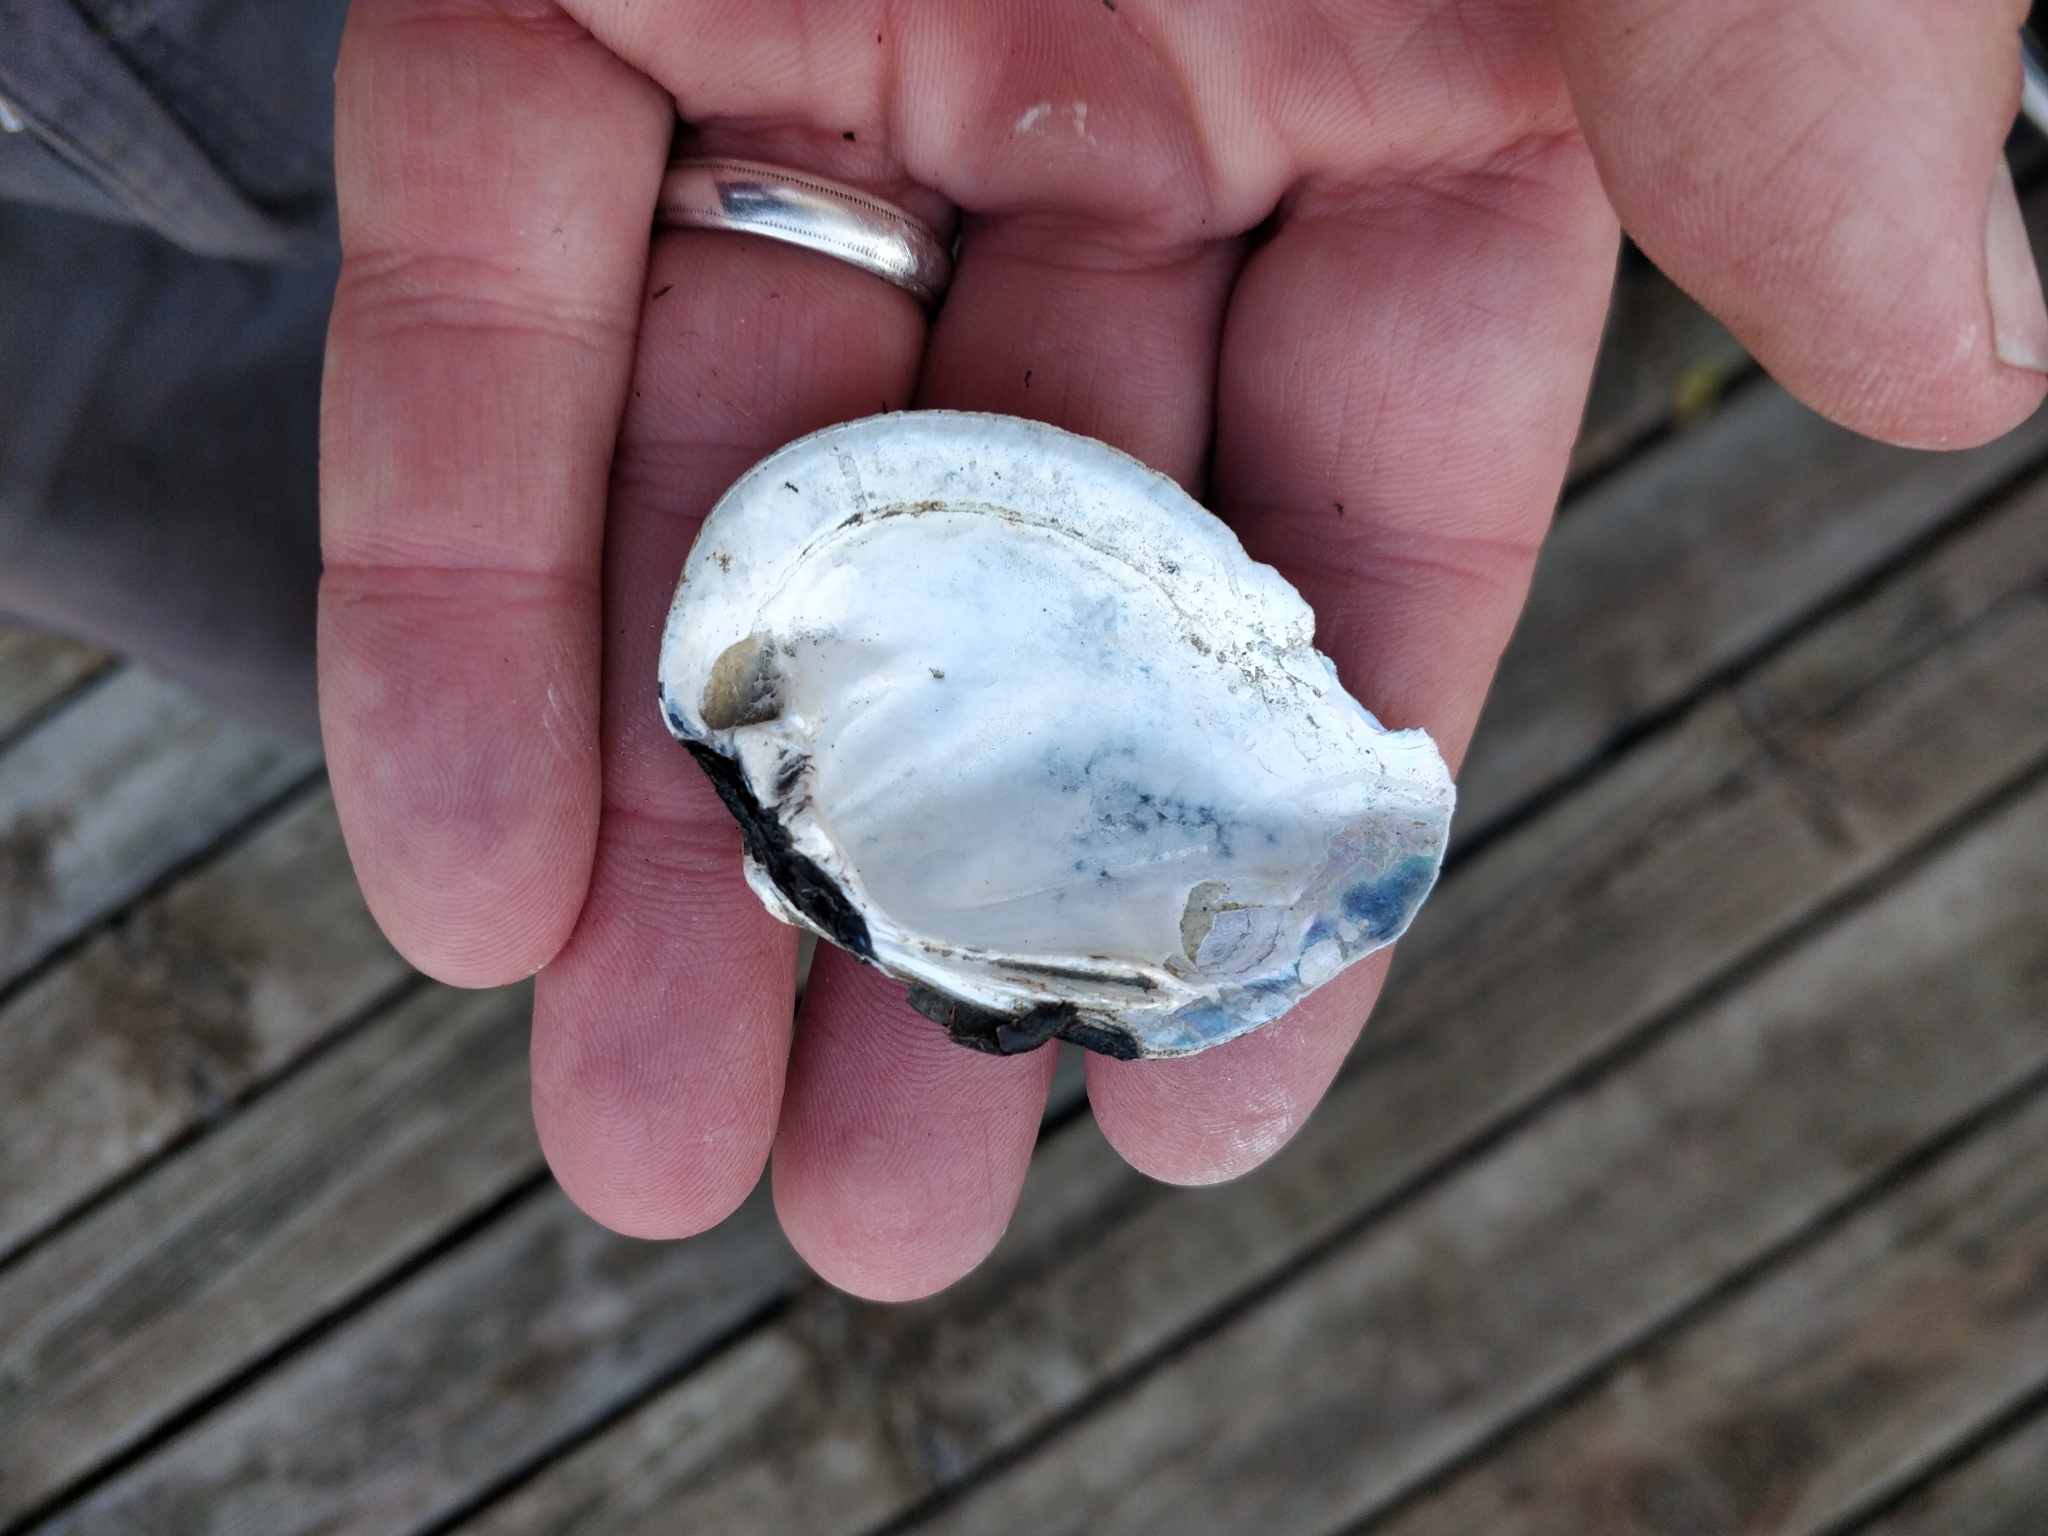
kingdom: Animalia
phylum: Mollusca
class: Bivalvia
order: Unionida
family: Unionidae
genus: Fusconaia
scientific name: Fusconaia flava
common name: Wabash pigtoe
